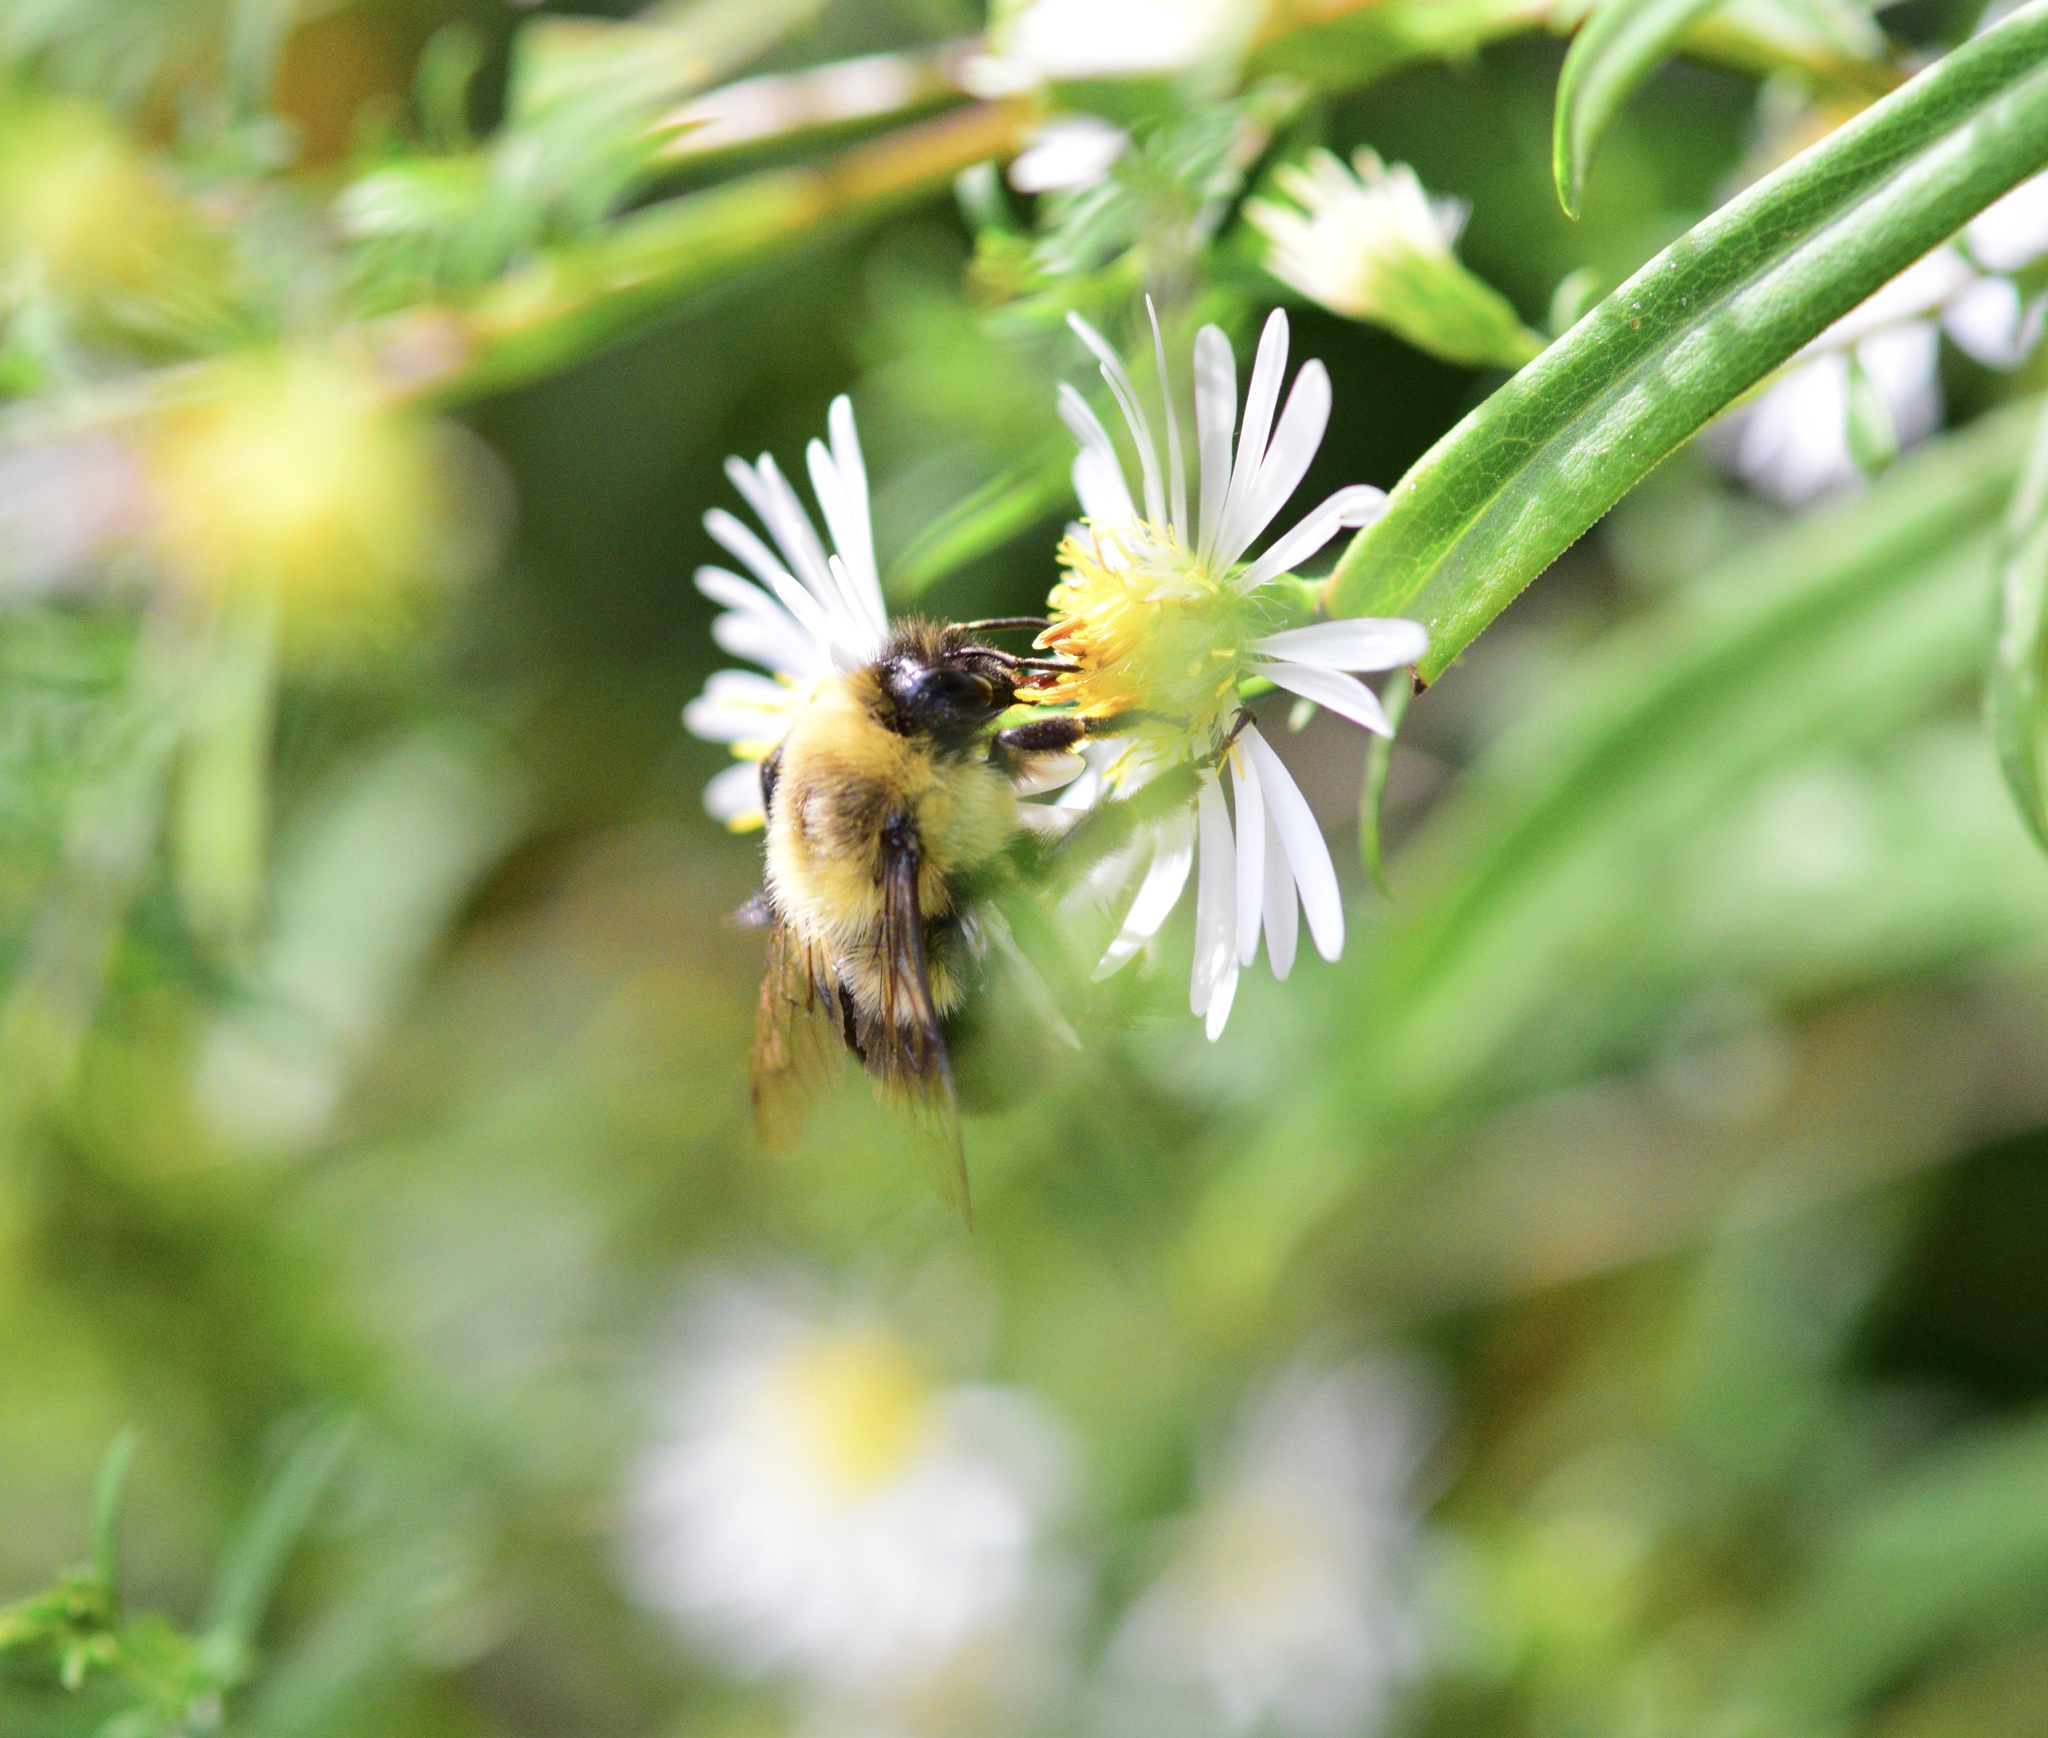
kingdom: Animalia
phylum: Arthropoda
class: Insecta
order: Hymenoptera
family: Apidae
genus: Bombus
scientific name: Bombus impatiens
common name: Common eastern bumble bee
